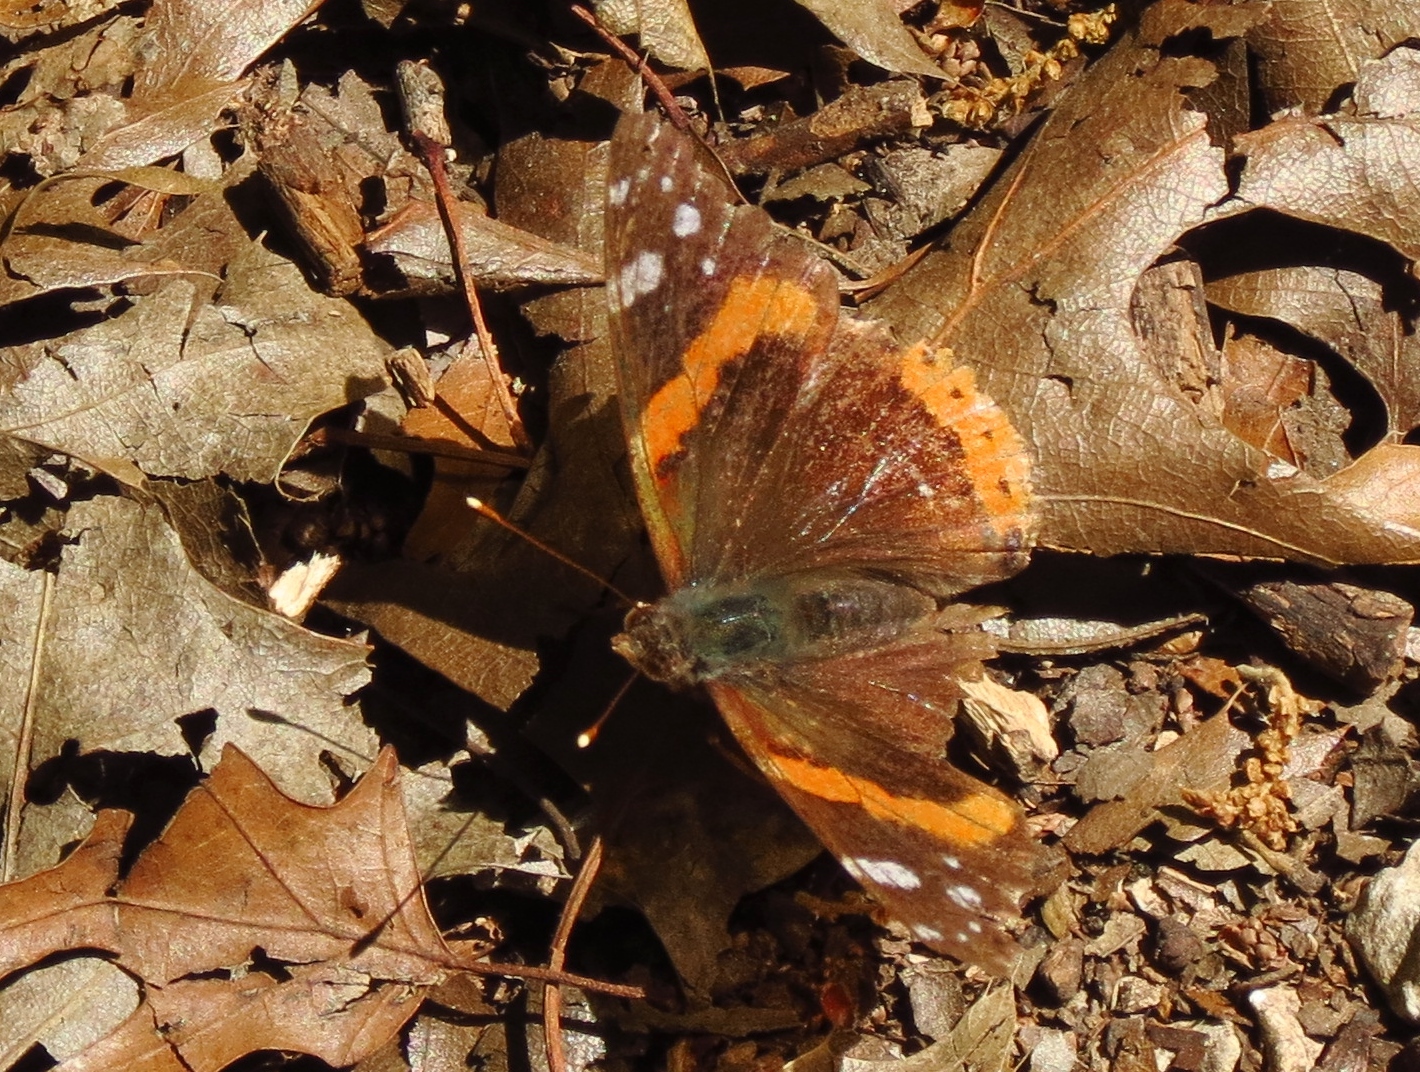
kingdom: Animalia
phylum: Arthropoda
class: Insecta
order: Lepidoptera
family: Nymphalidae
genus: Vanessa
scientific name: Vanessa atalanta
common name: Red admiral
